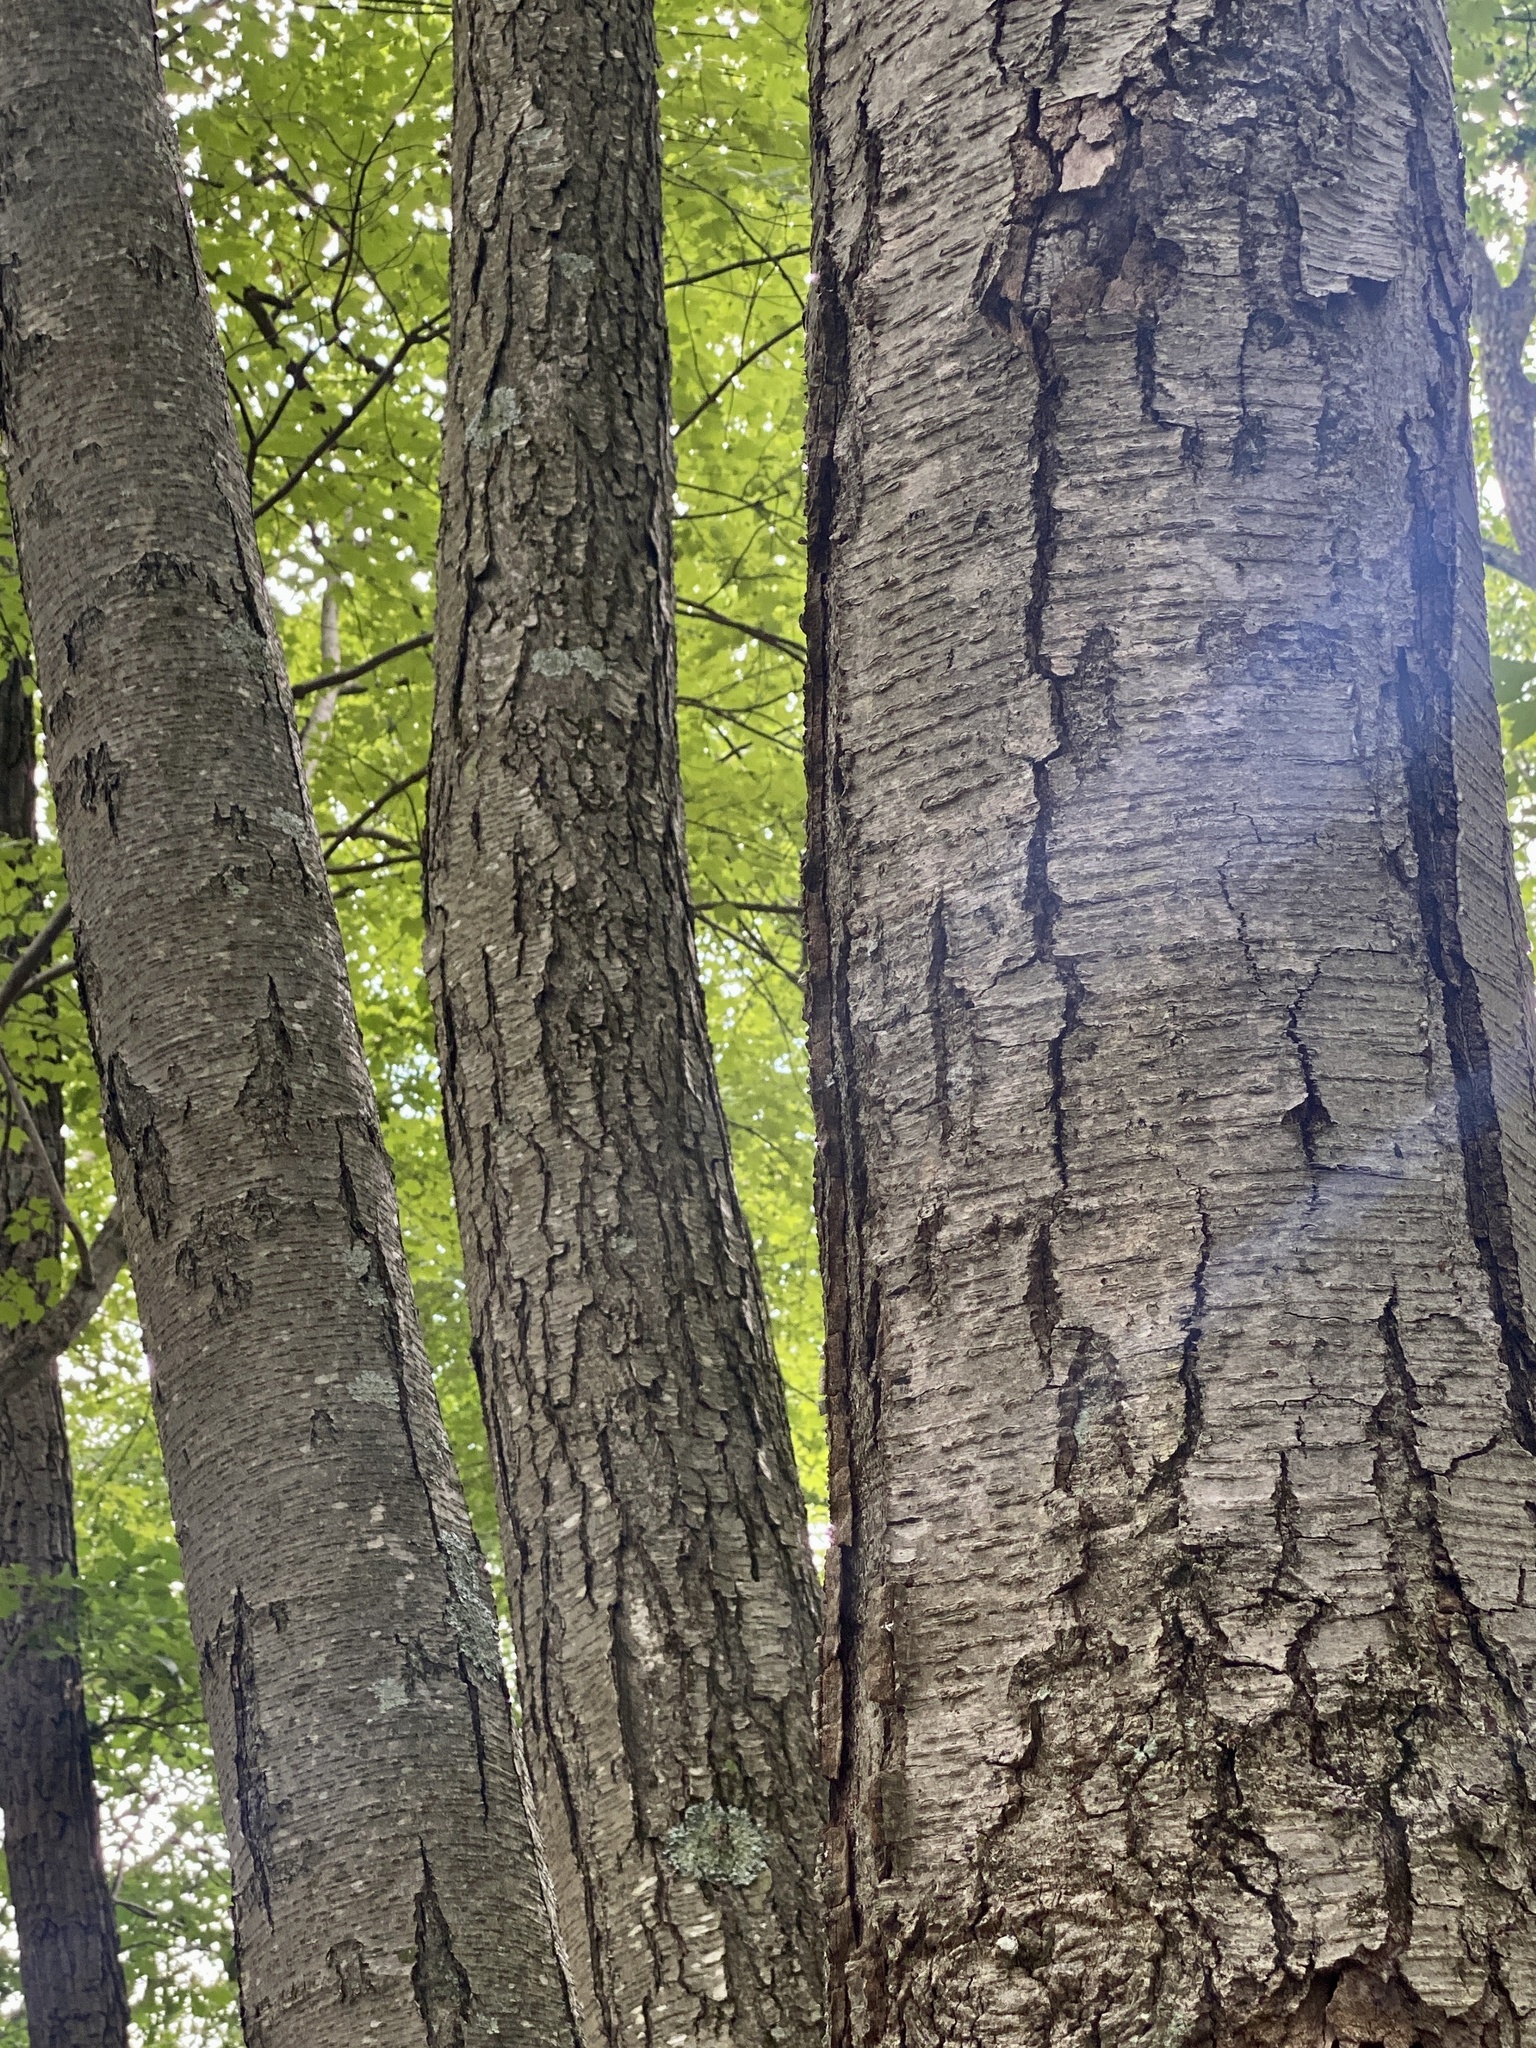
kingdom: Plantae
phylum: Tracheophyta
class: Magnoliopsida
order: Fagales
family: Betulaceae
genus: Betula
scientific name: Betula lenta
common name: Black birch
